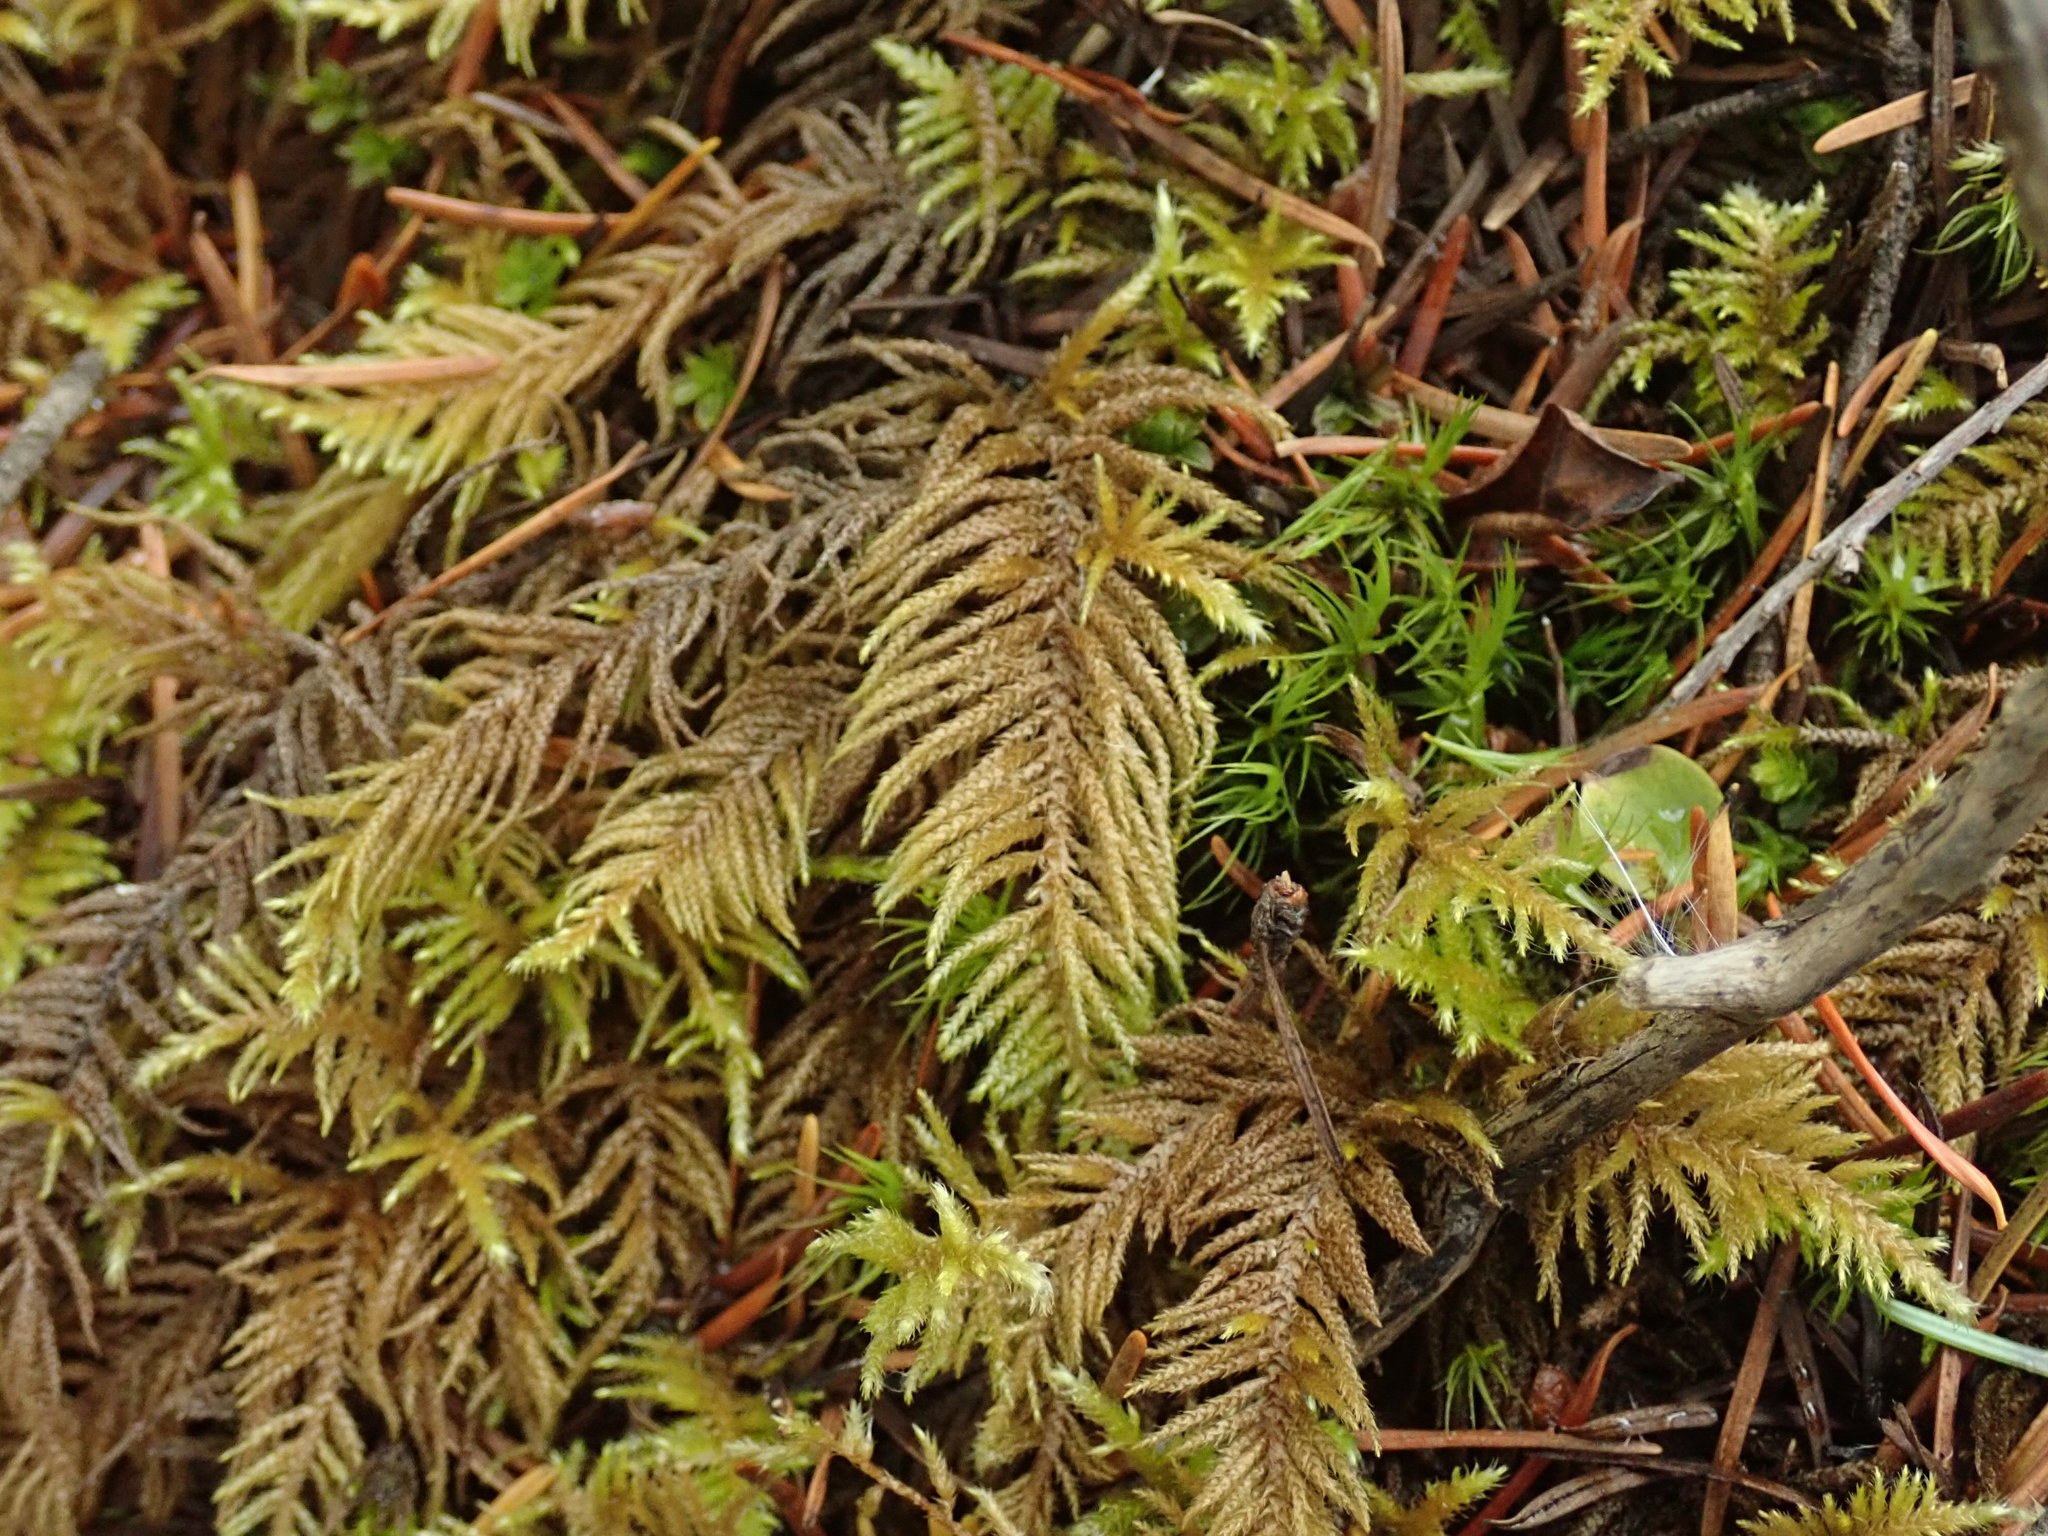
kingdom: Plantae
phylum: Bryophyta
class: Bryopsida
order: Hypnales
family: Brachytheciaceae
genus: Kindbergia
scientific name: Kindbergia oregana
